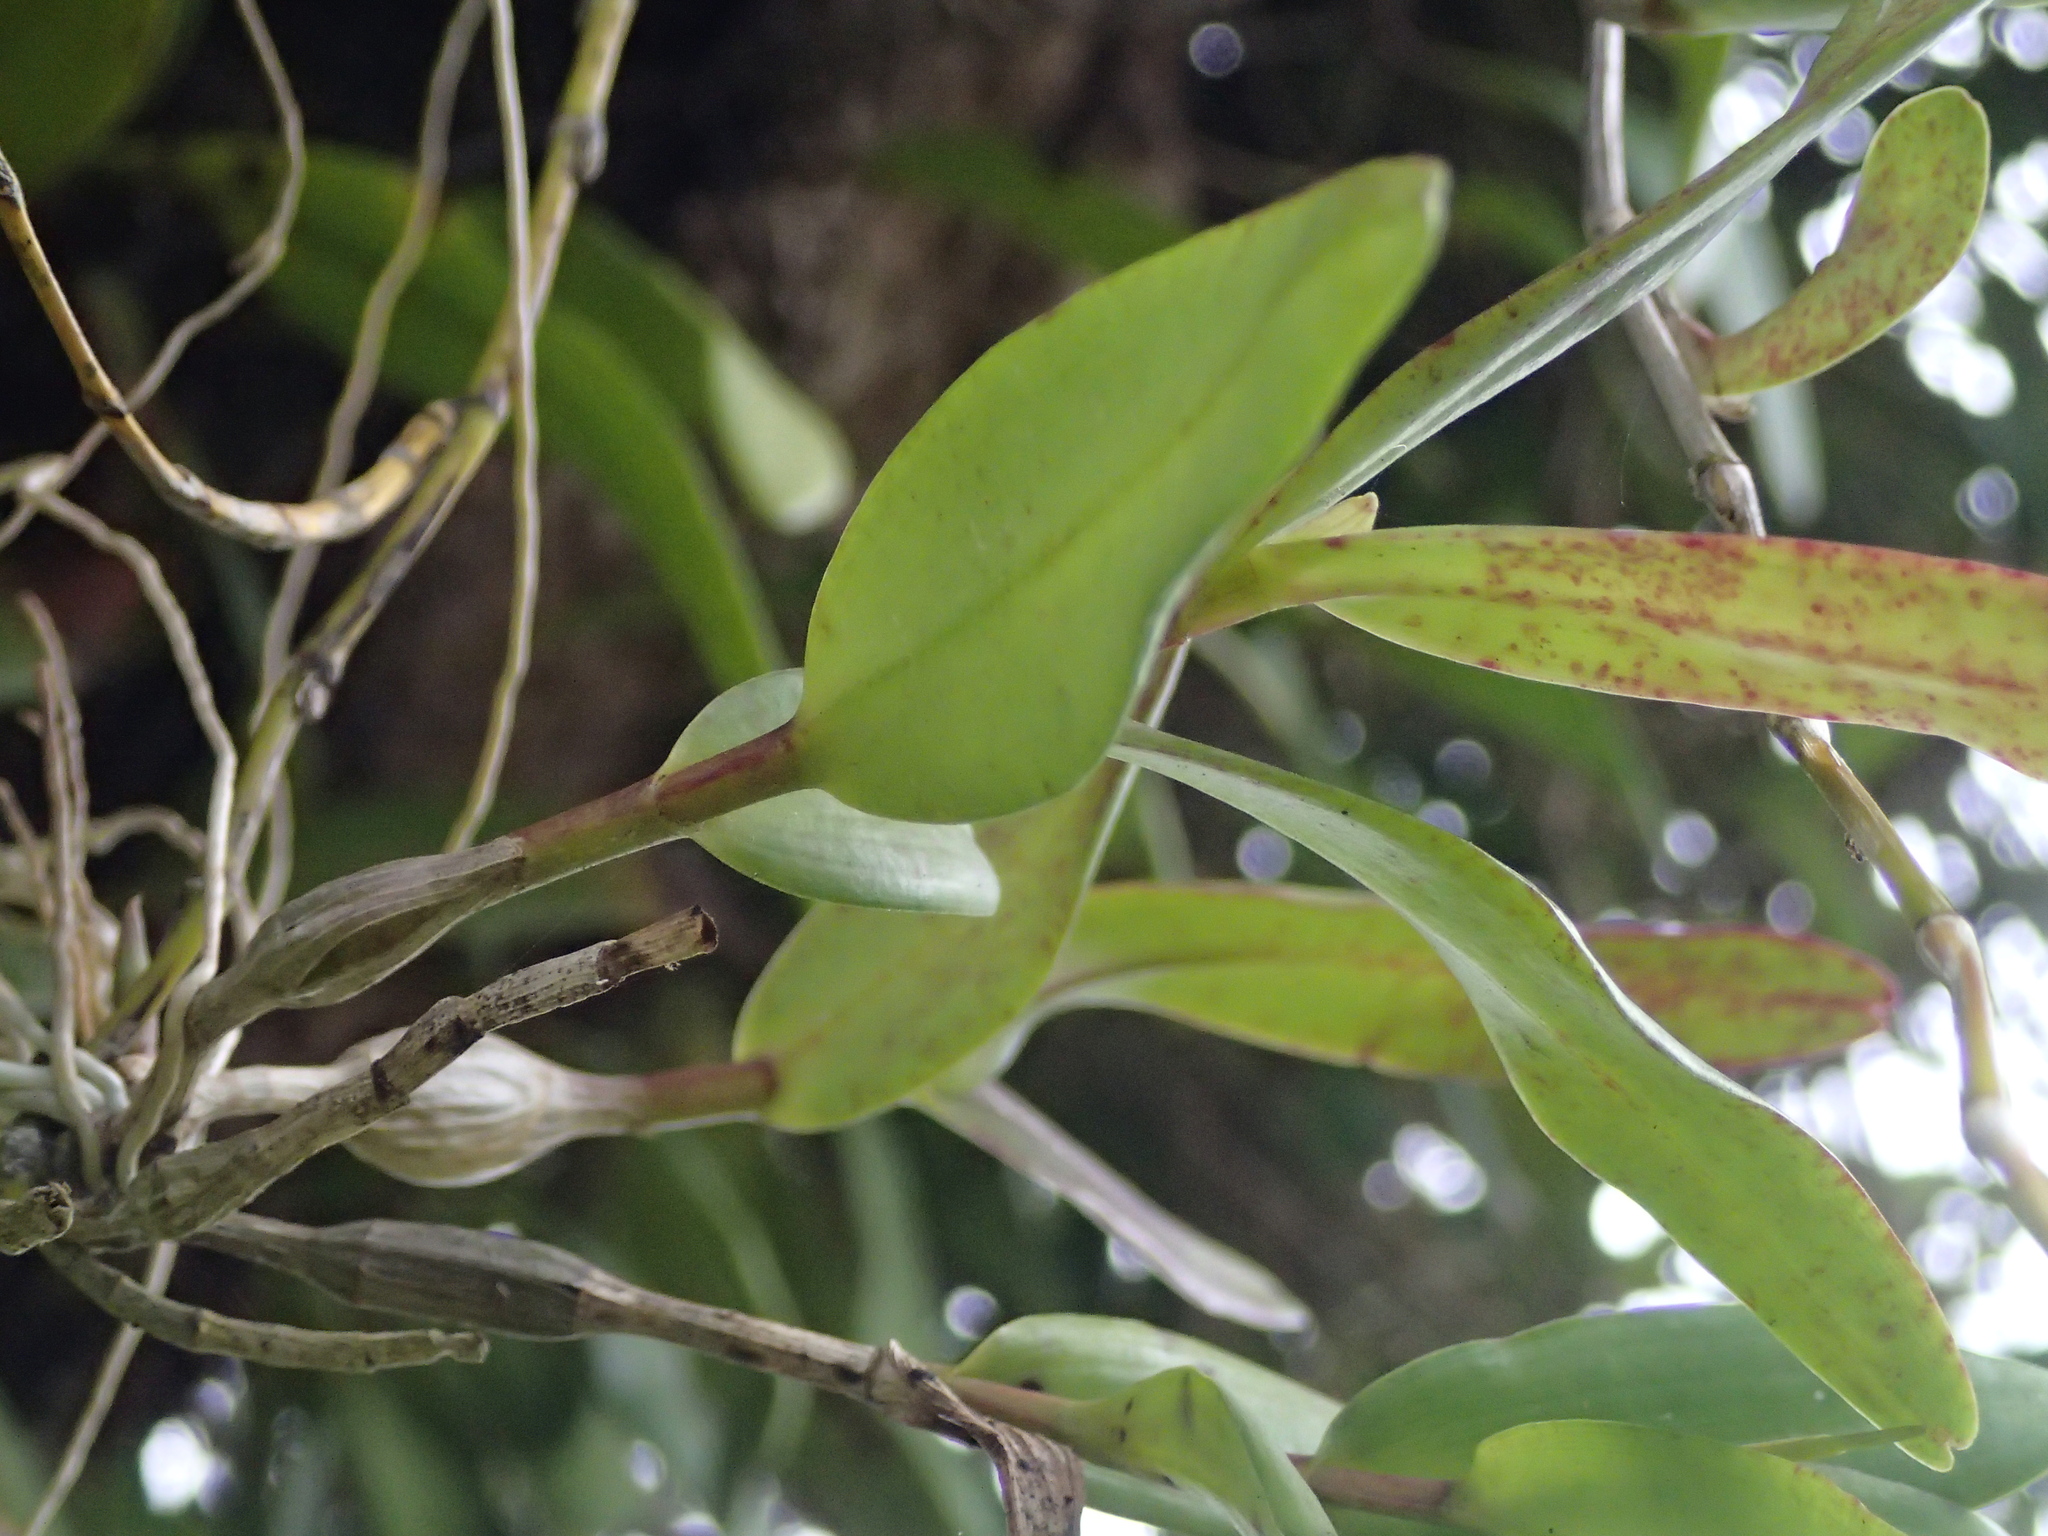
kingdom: Plantae
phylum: Tracheophyta
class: Liliopsida
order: Asparagales
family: Orchidaceae
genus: Dendrobium
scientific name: Dendrobium crumenatum
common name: Orchid
